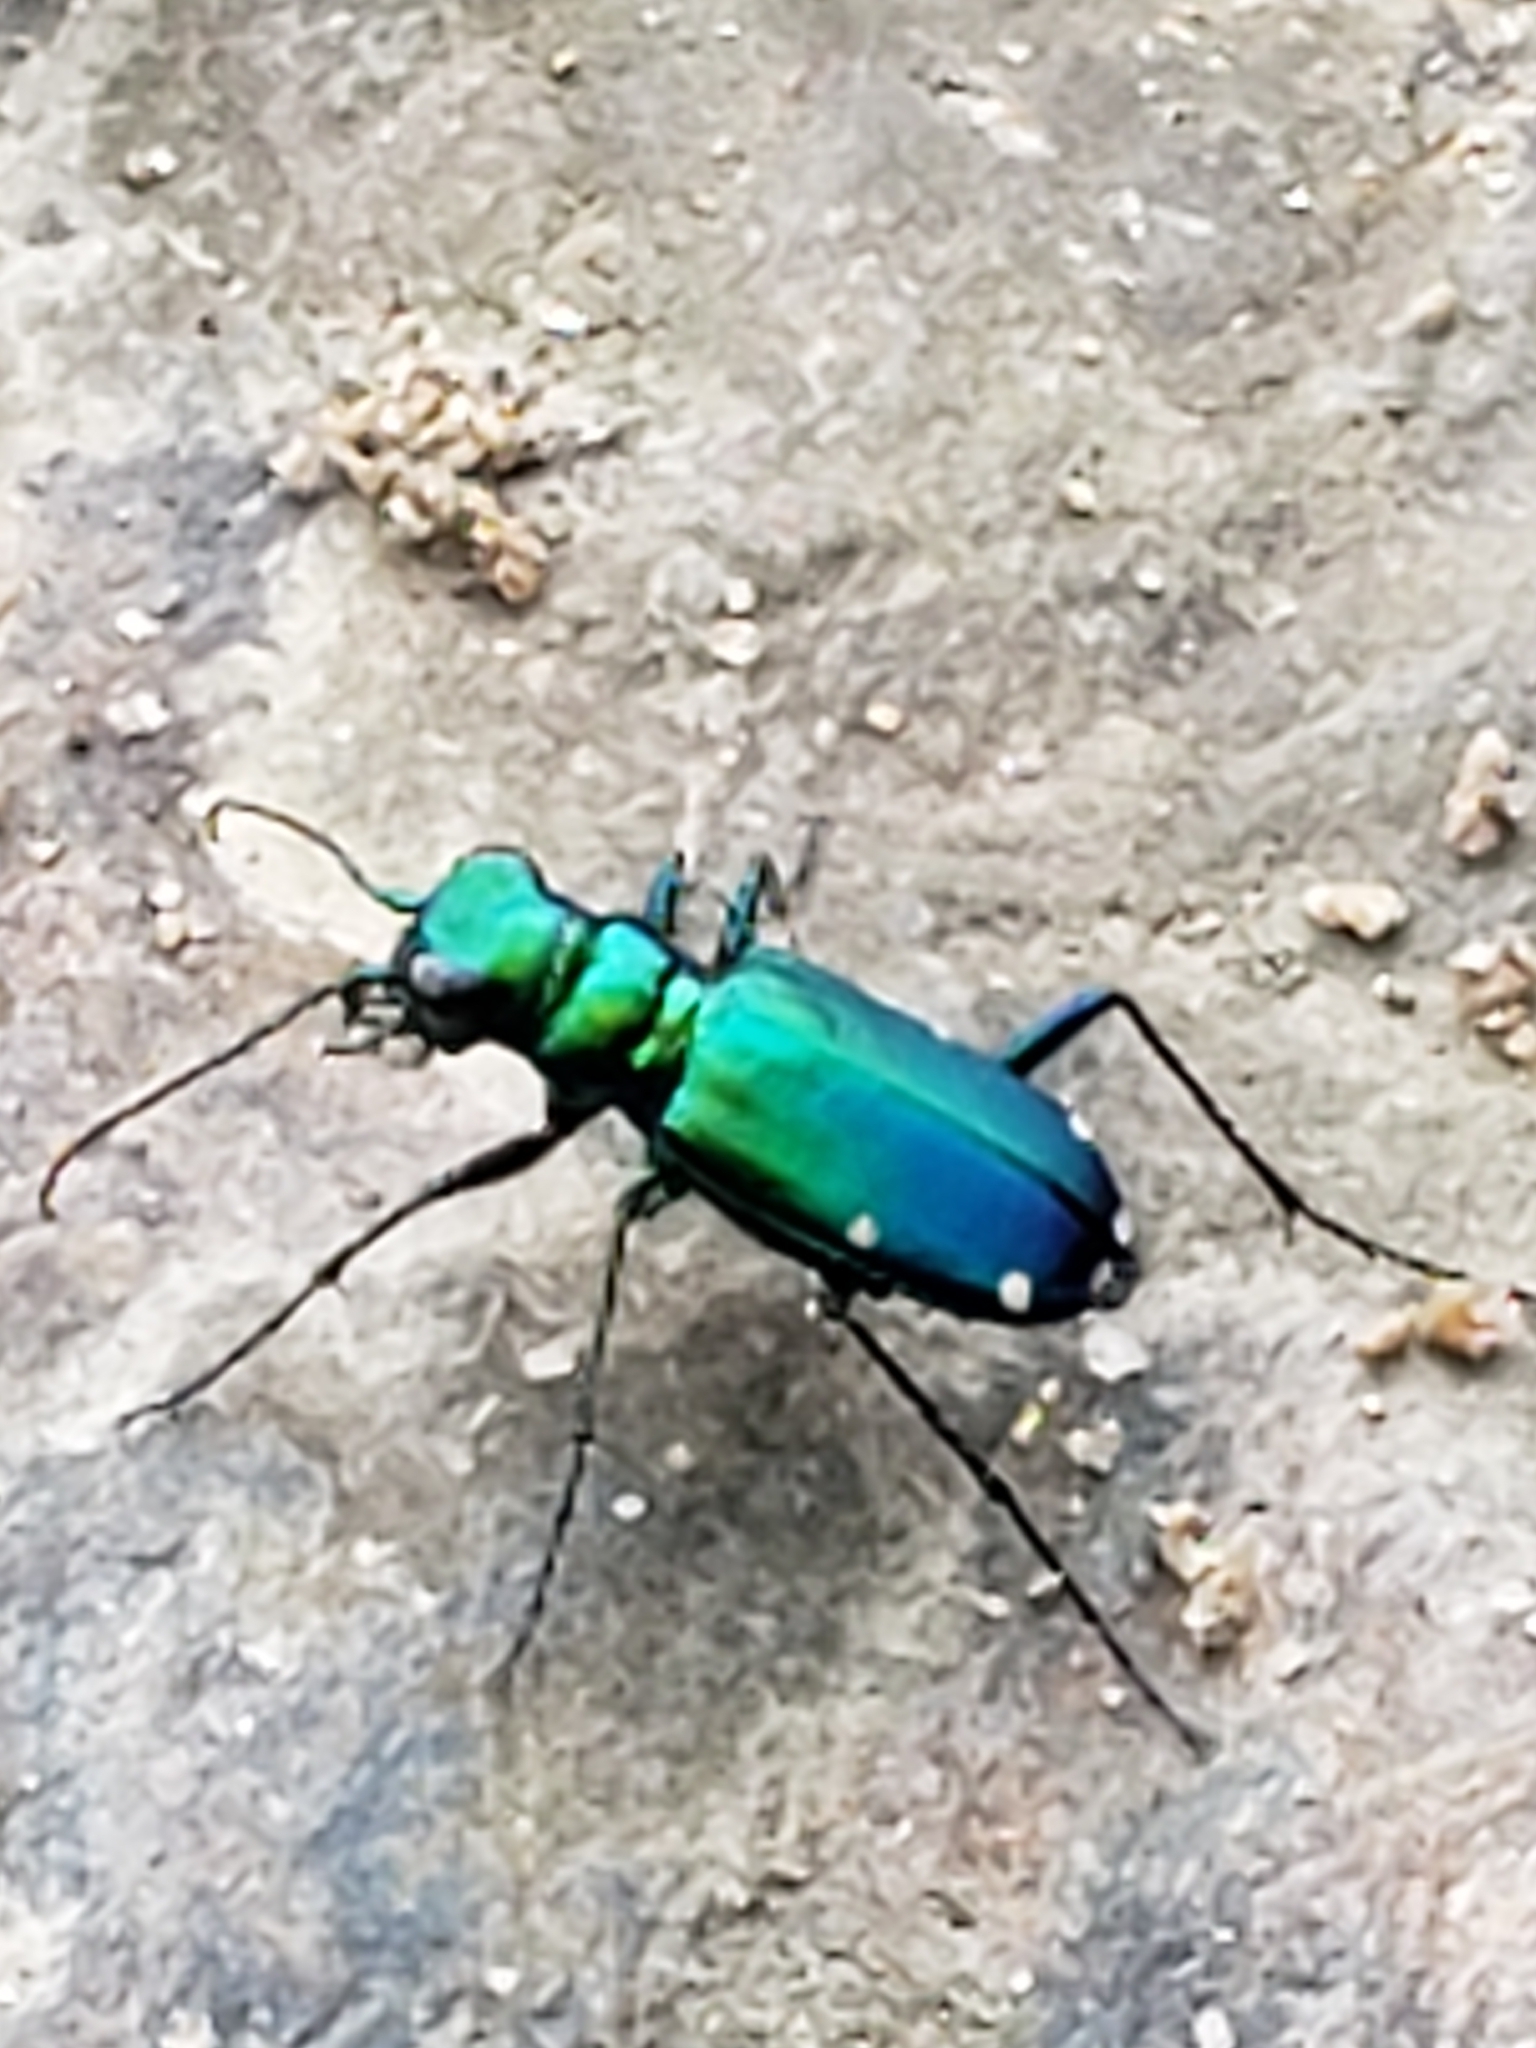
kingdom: Animalia
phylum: Arthropoda
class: Insecta
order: Coleoptera
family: Carabidae
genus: Cicindela
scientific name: Cicindela sexguttata
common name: Six-spotted tiger beetle
